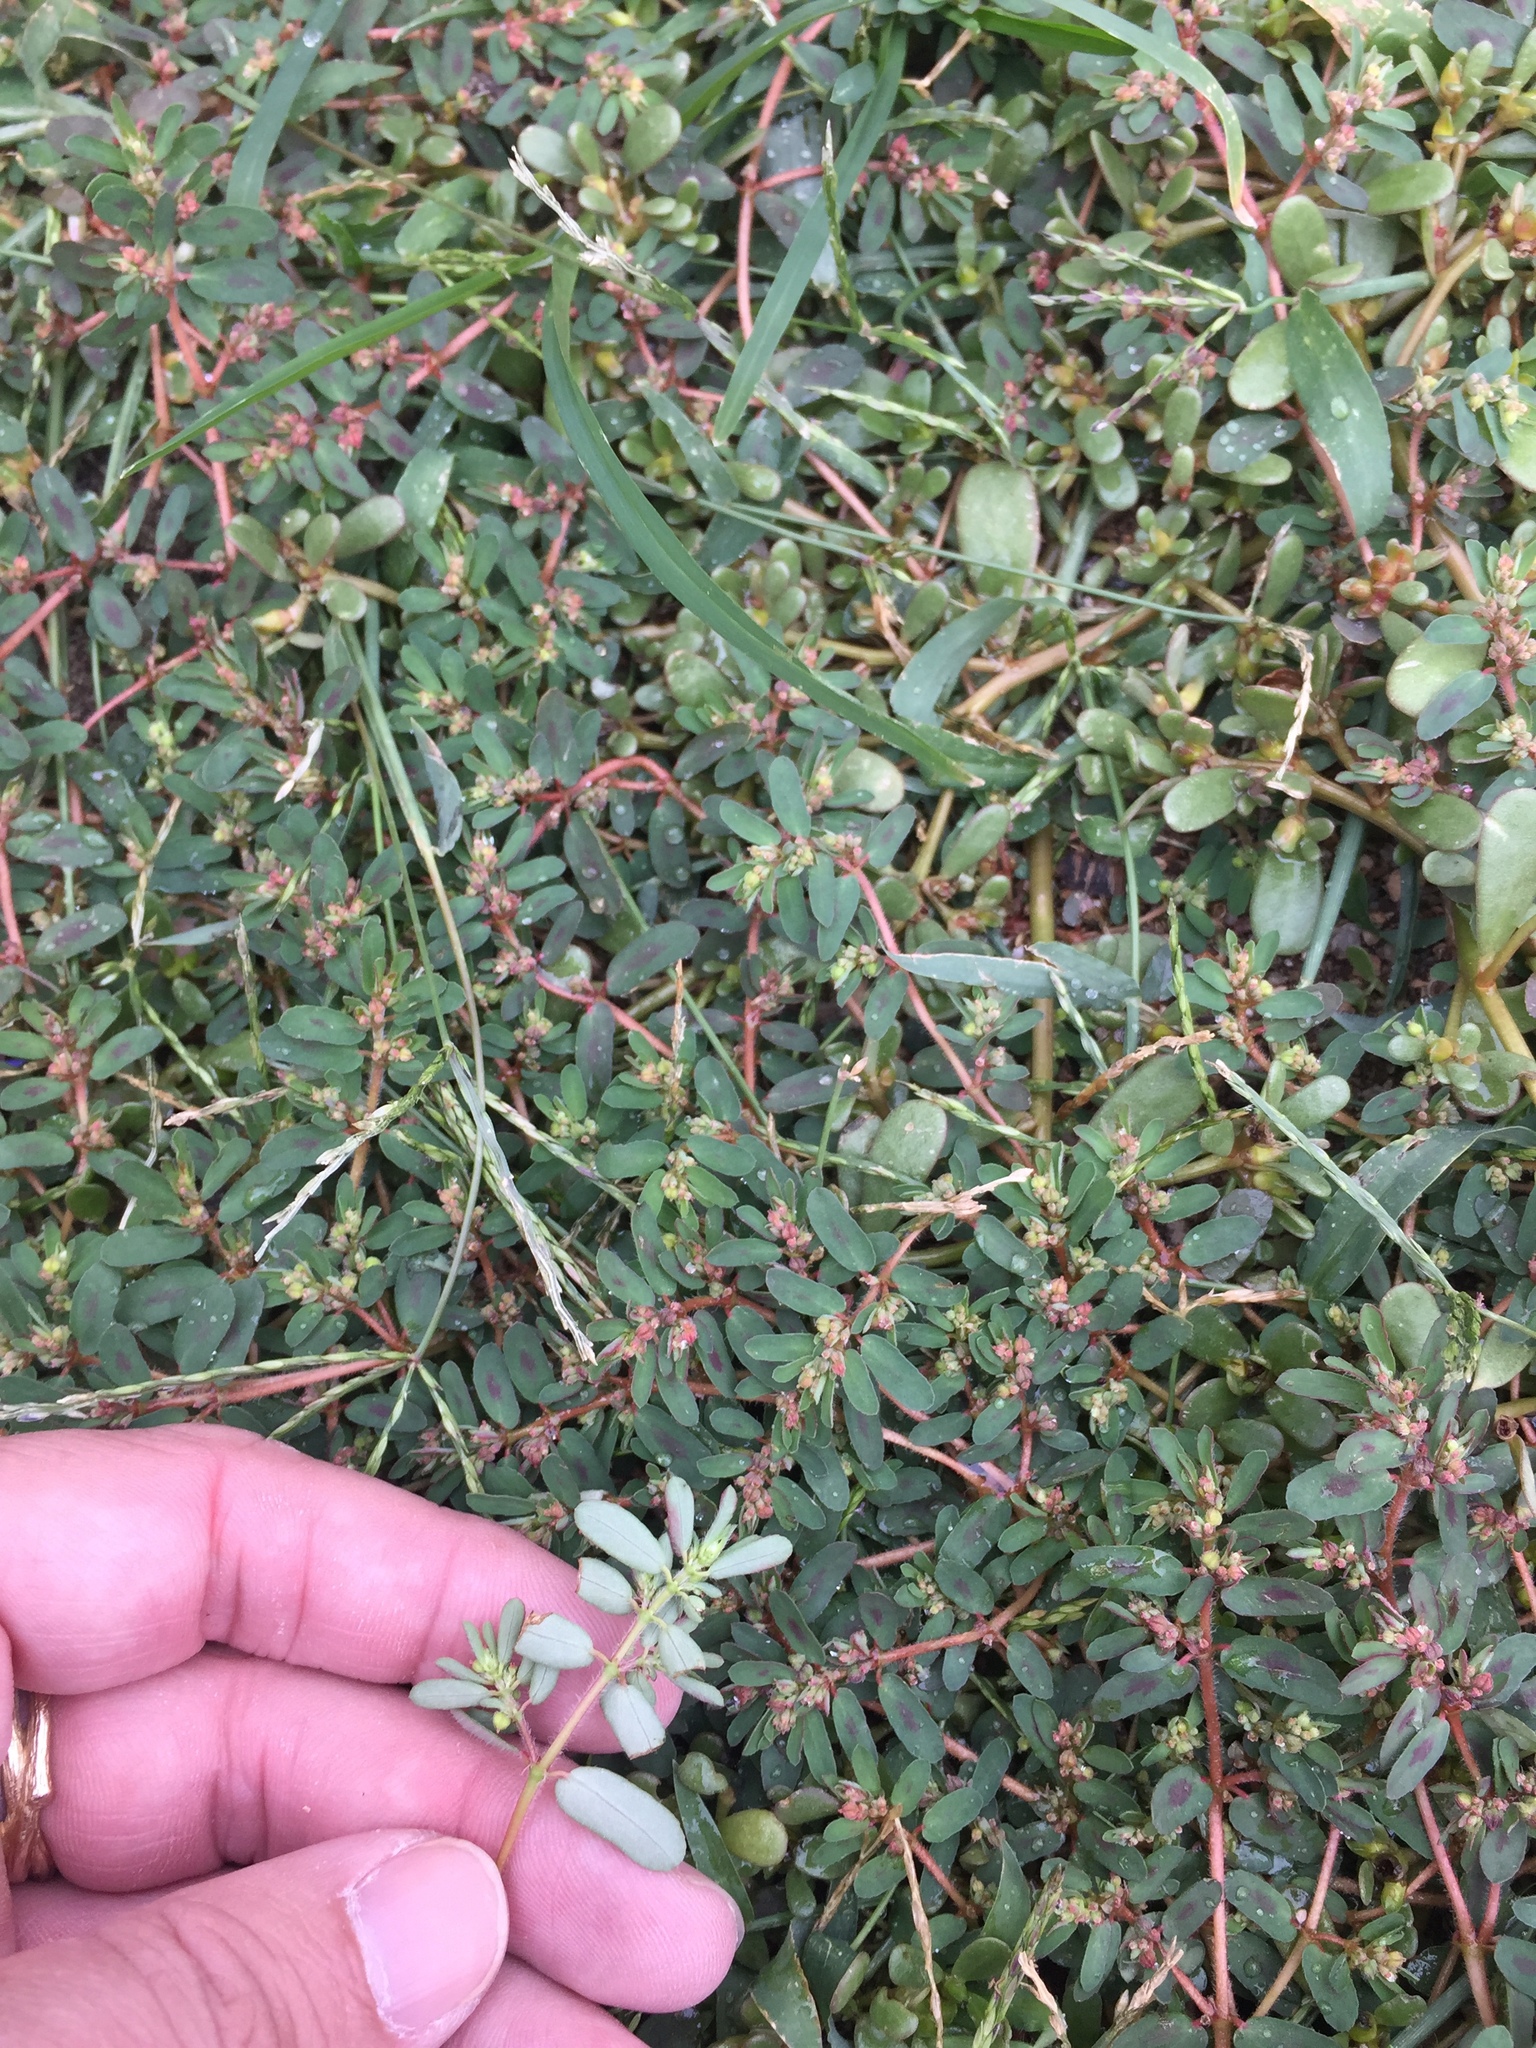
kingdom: Plantae
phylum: Tracheophyta
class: Magnoliopsida
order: Malpighiales
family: Euphorbiaceae
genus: Euphorbia
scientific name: Euphorbia maculata
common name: Spotted spurge
